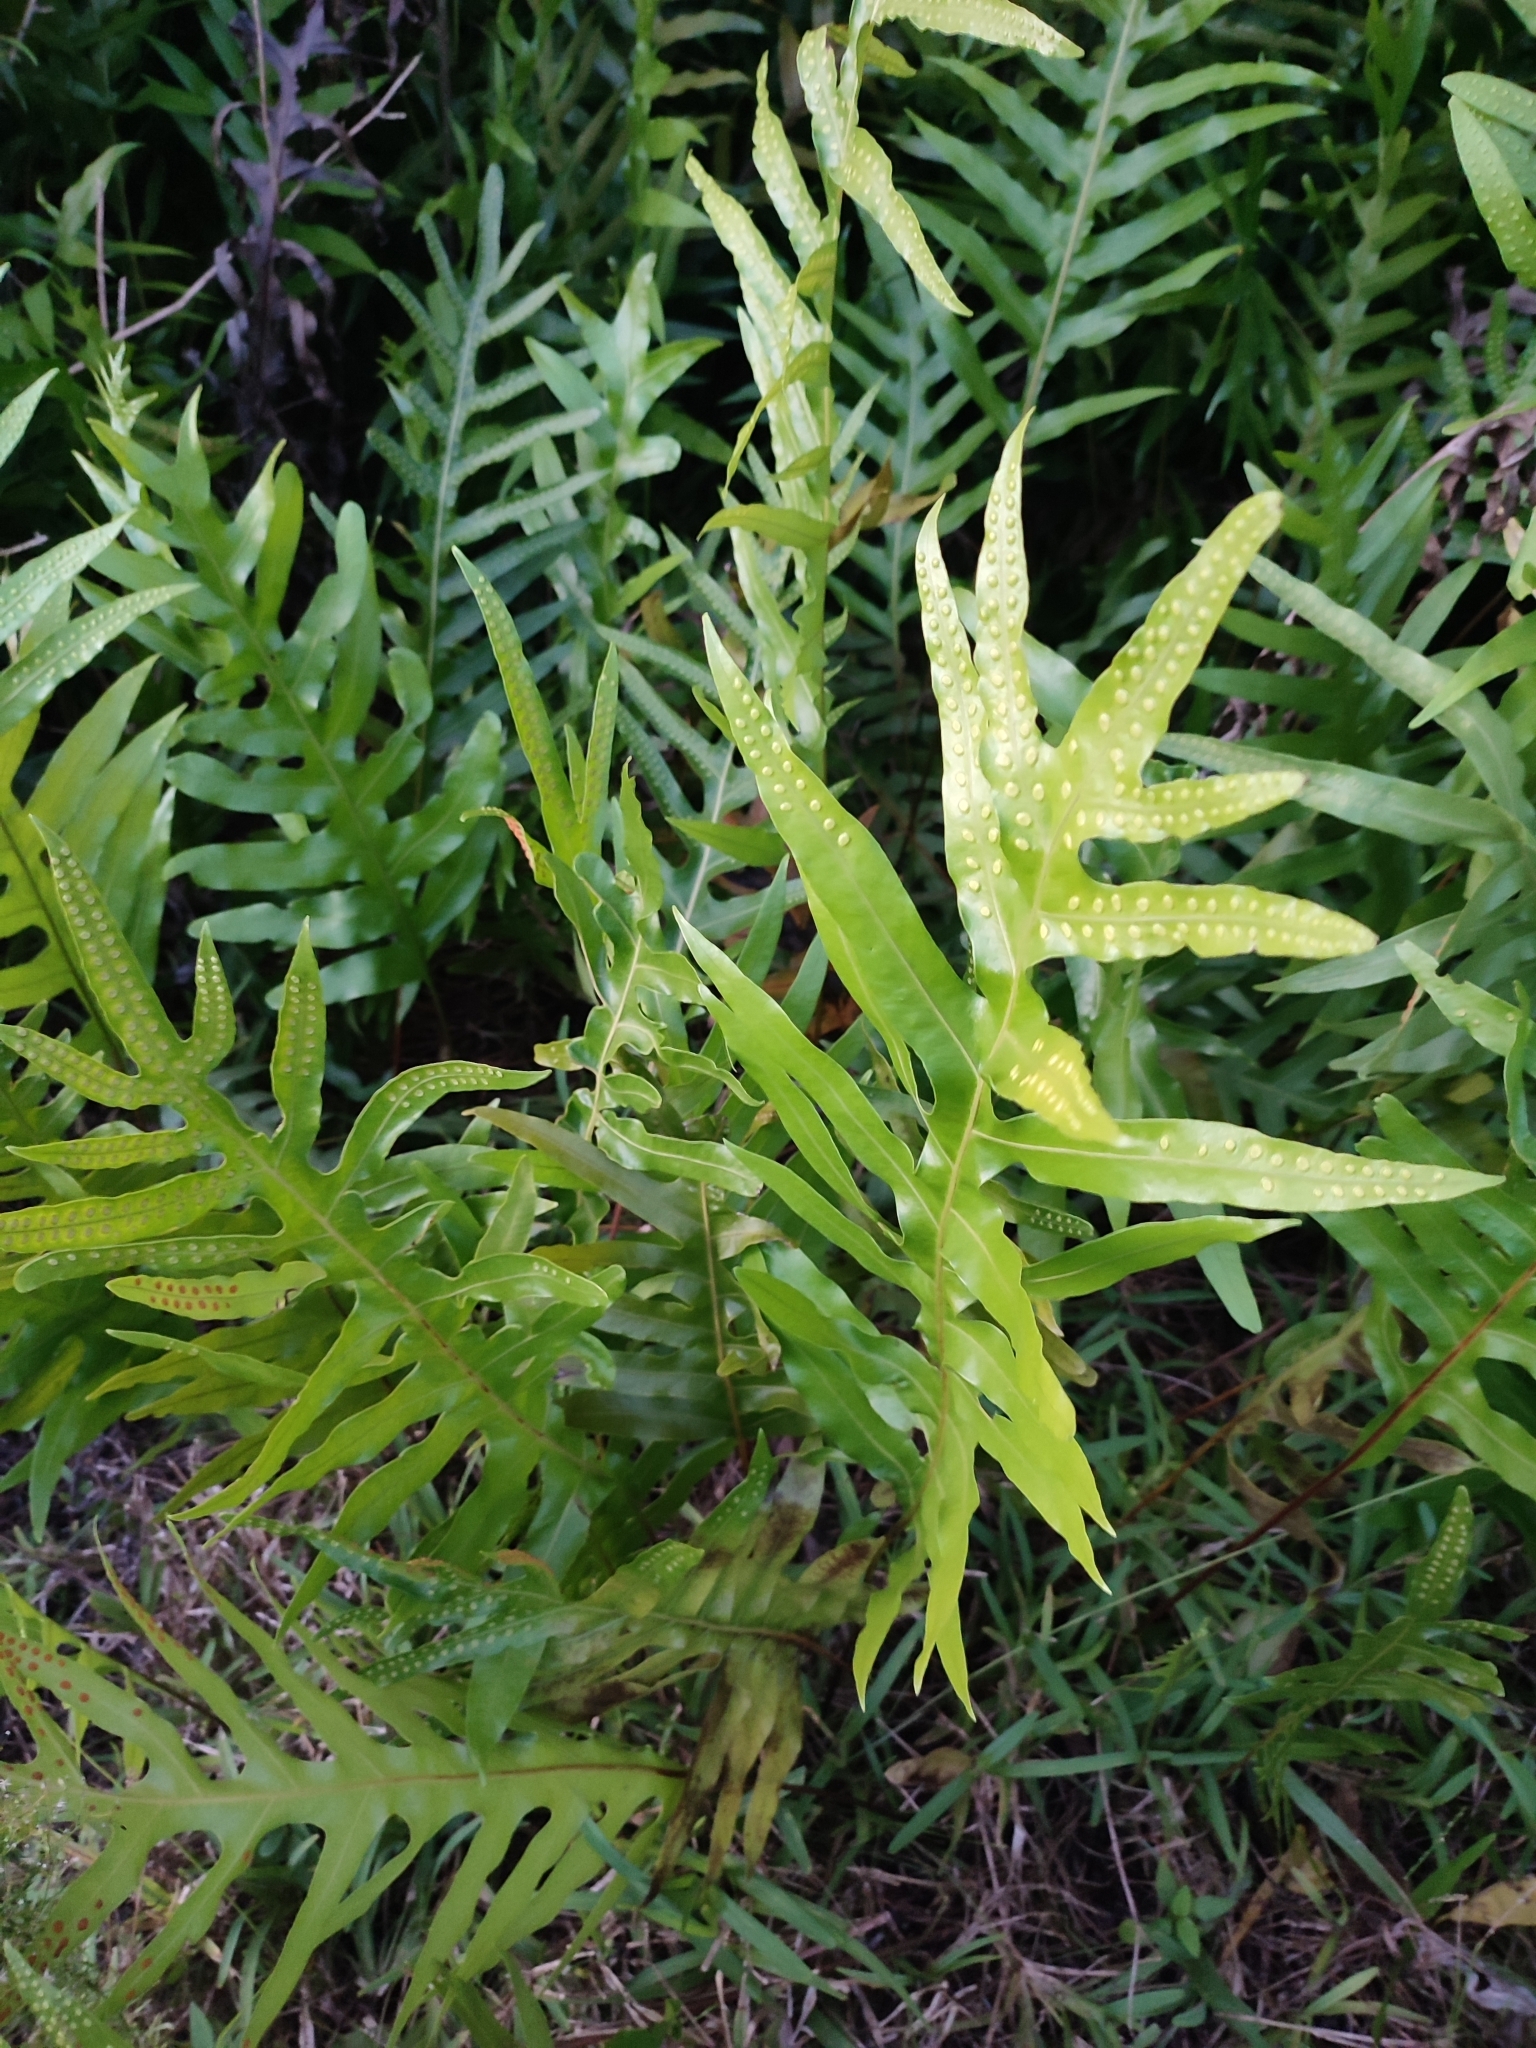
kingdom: Plantae
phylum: Tracheophyta
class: Polypodiopsida
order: Polypodiales
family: Polypodiaceae
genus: Microsorum
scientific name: Microsorum scolopendria
